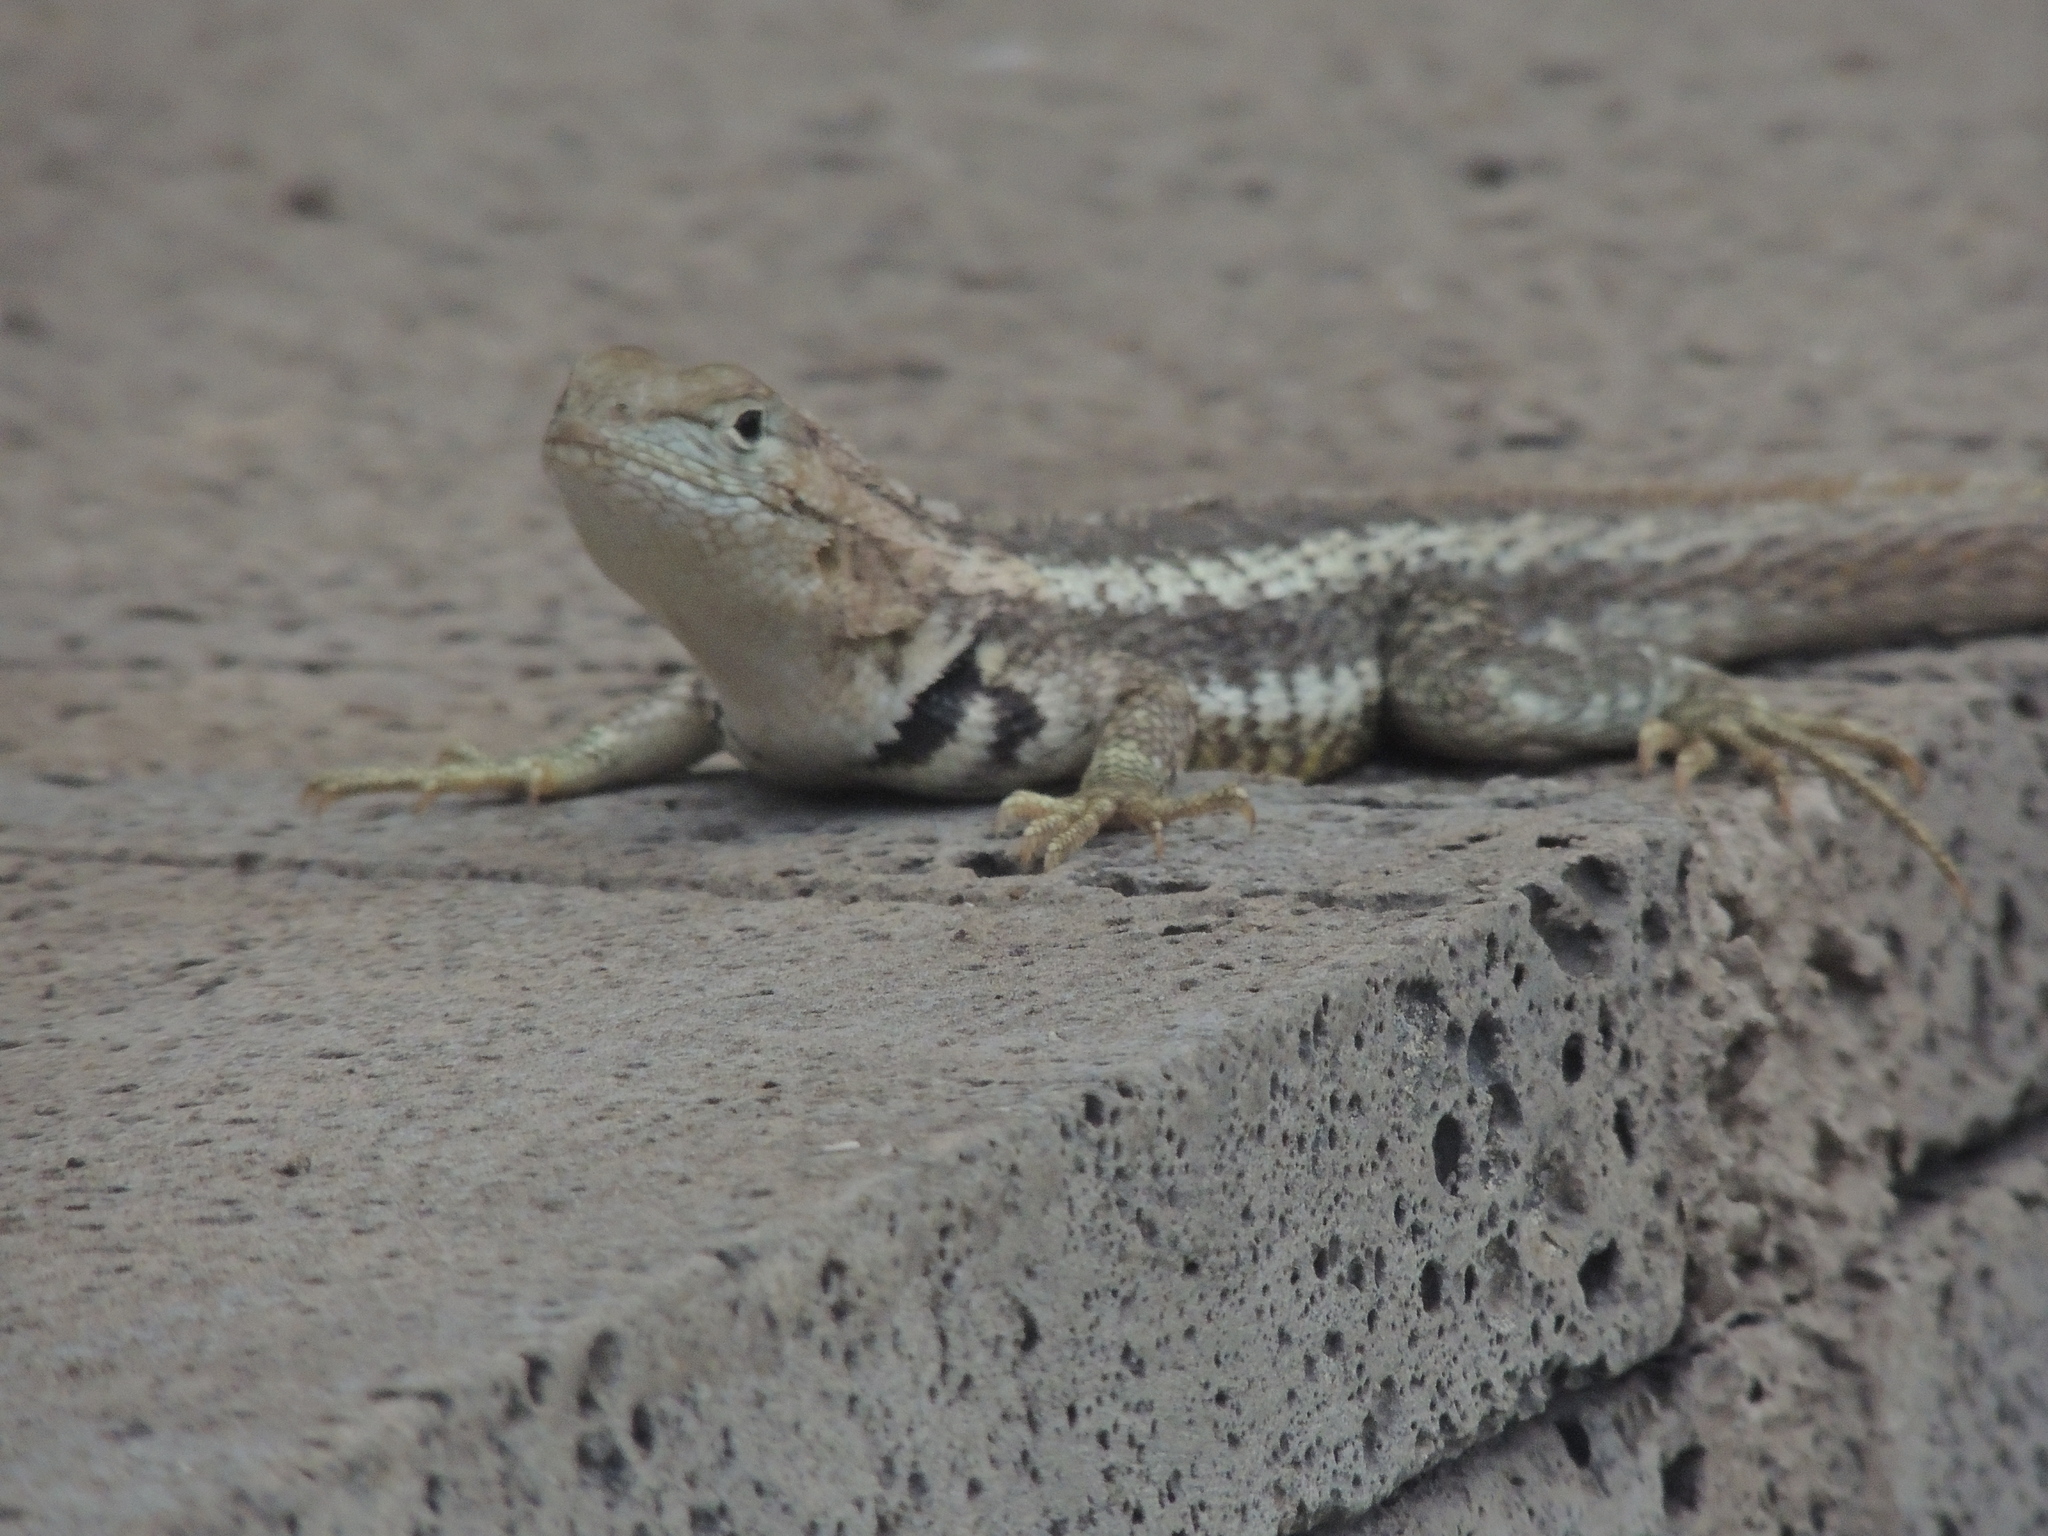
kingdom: Animalia
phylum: Chordata
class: Squamata
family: Tropiduridae
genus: Microlophus
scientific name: Microlophus bivittatus
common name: San cristobal lava lizard
